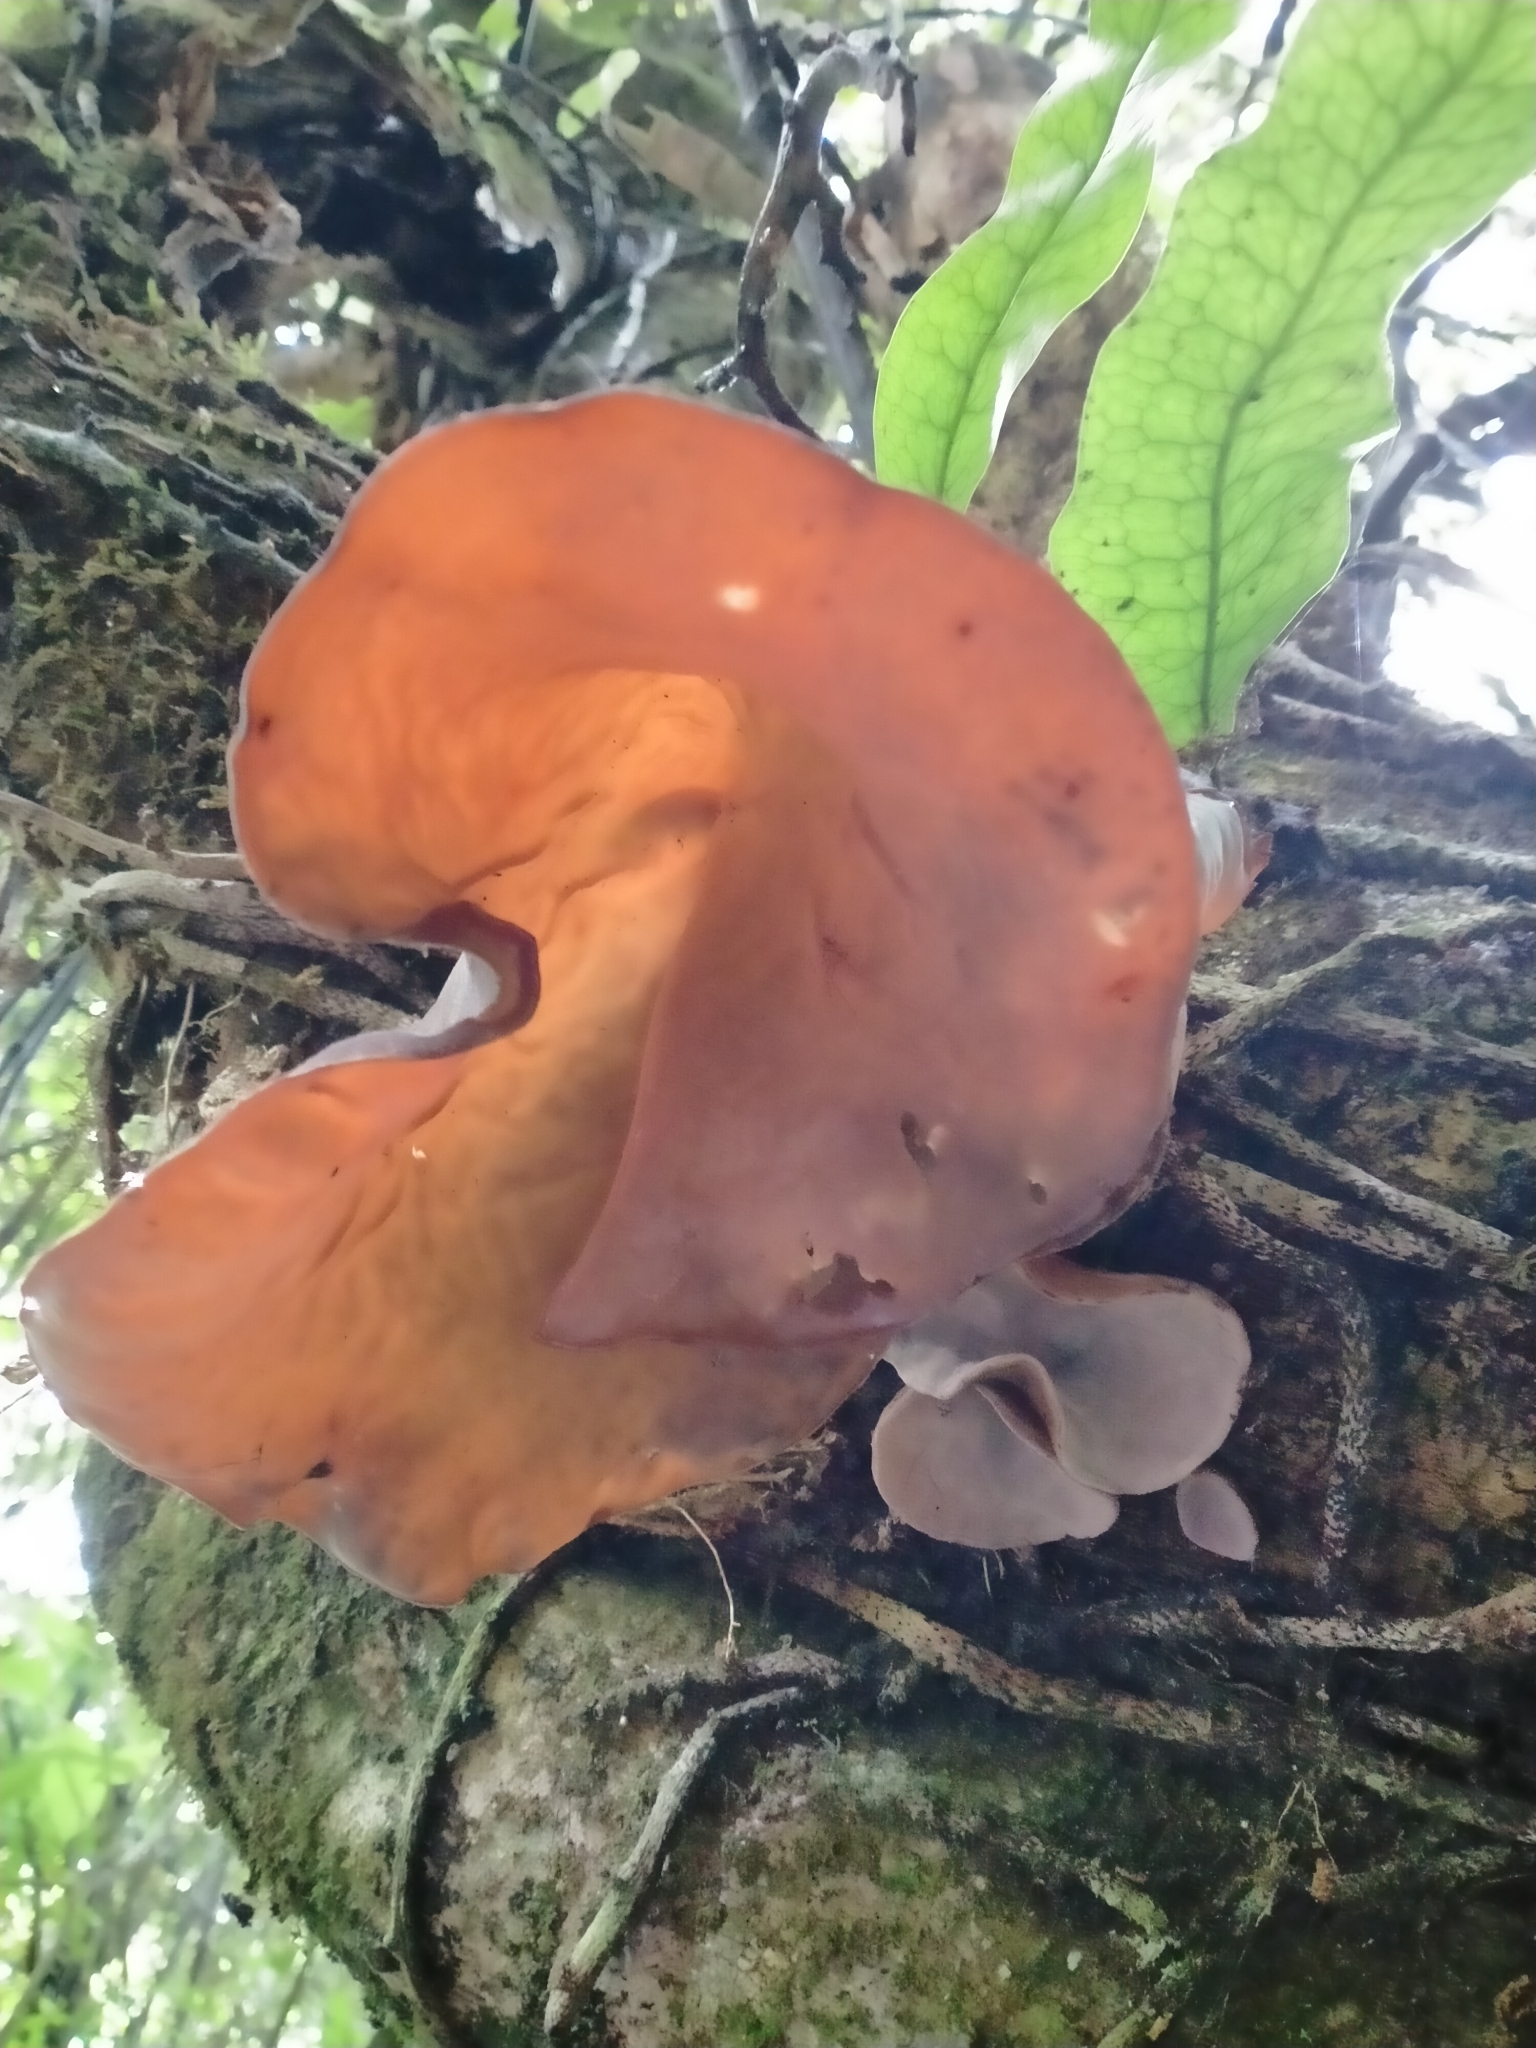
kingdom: Fungi
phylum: Basidiomycota
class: Agaricomycetes
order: Auriculariales
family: Auriculariaceae
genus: Auricularia
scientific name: Auricularia cornea
